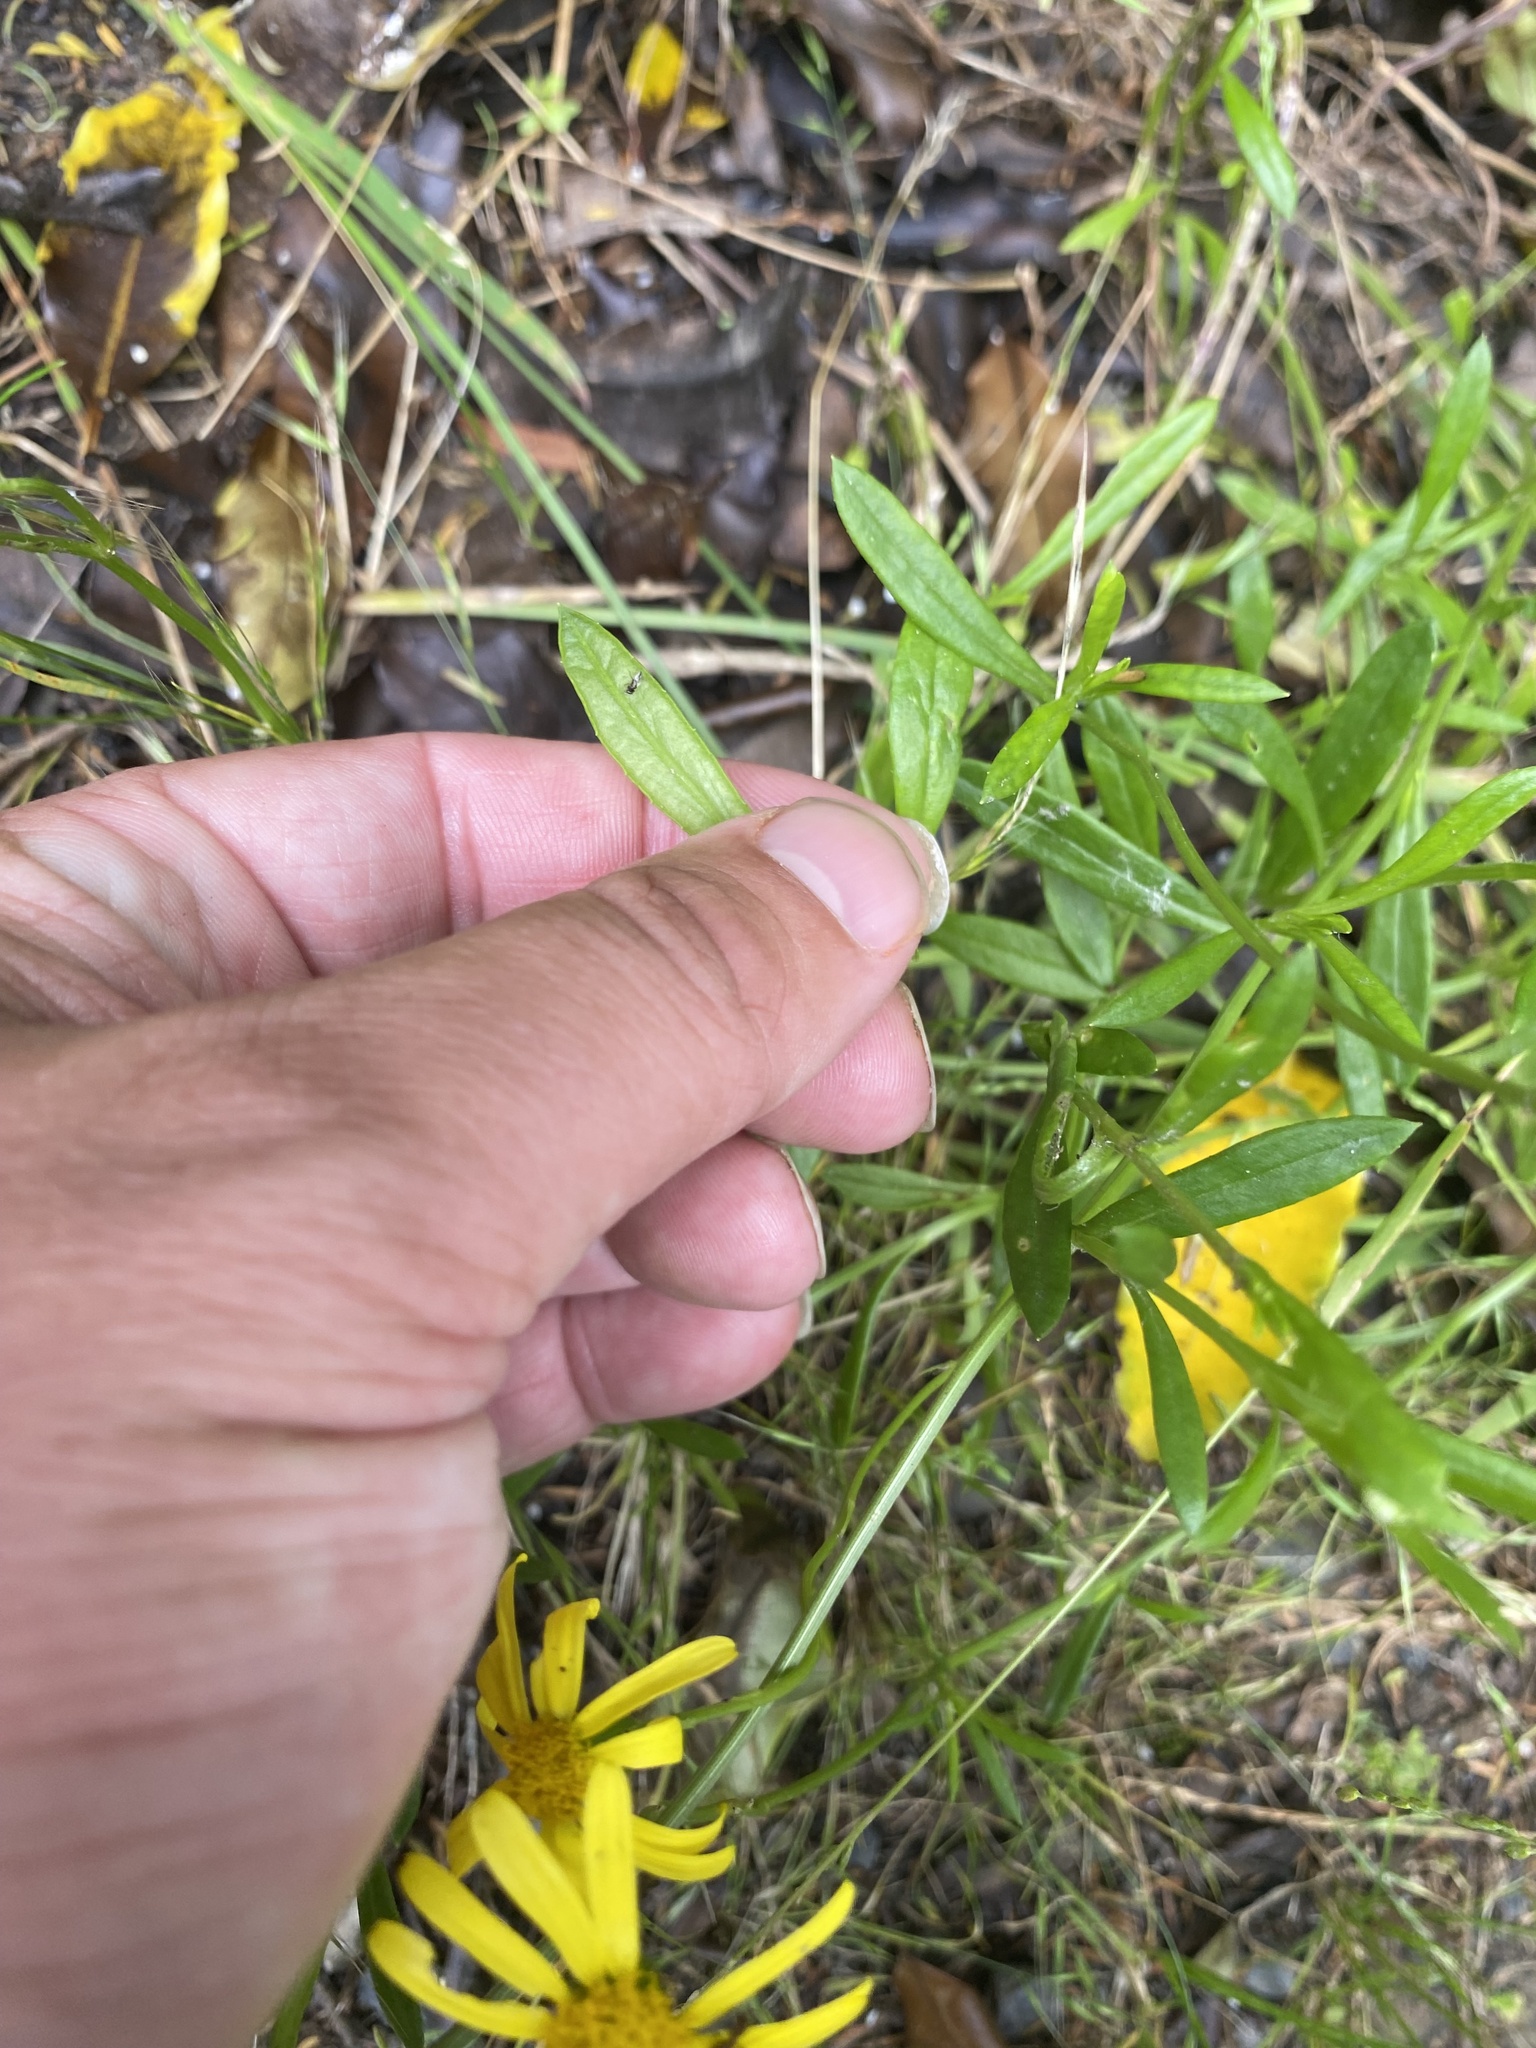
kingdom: Plantae
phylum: Tracheophyta
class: Magnoliopsida
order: Asterales
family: Asteraceae
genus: Senecio
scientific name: Senecio skirrhodon
